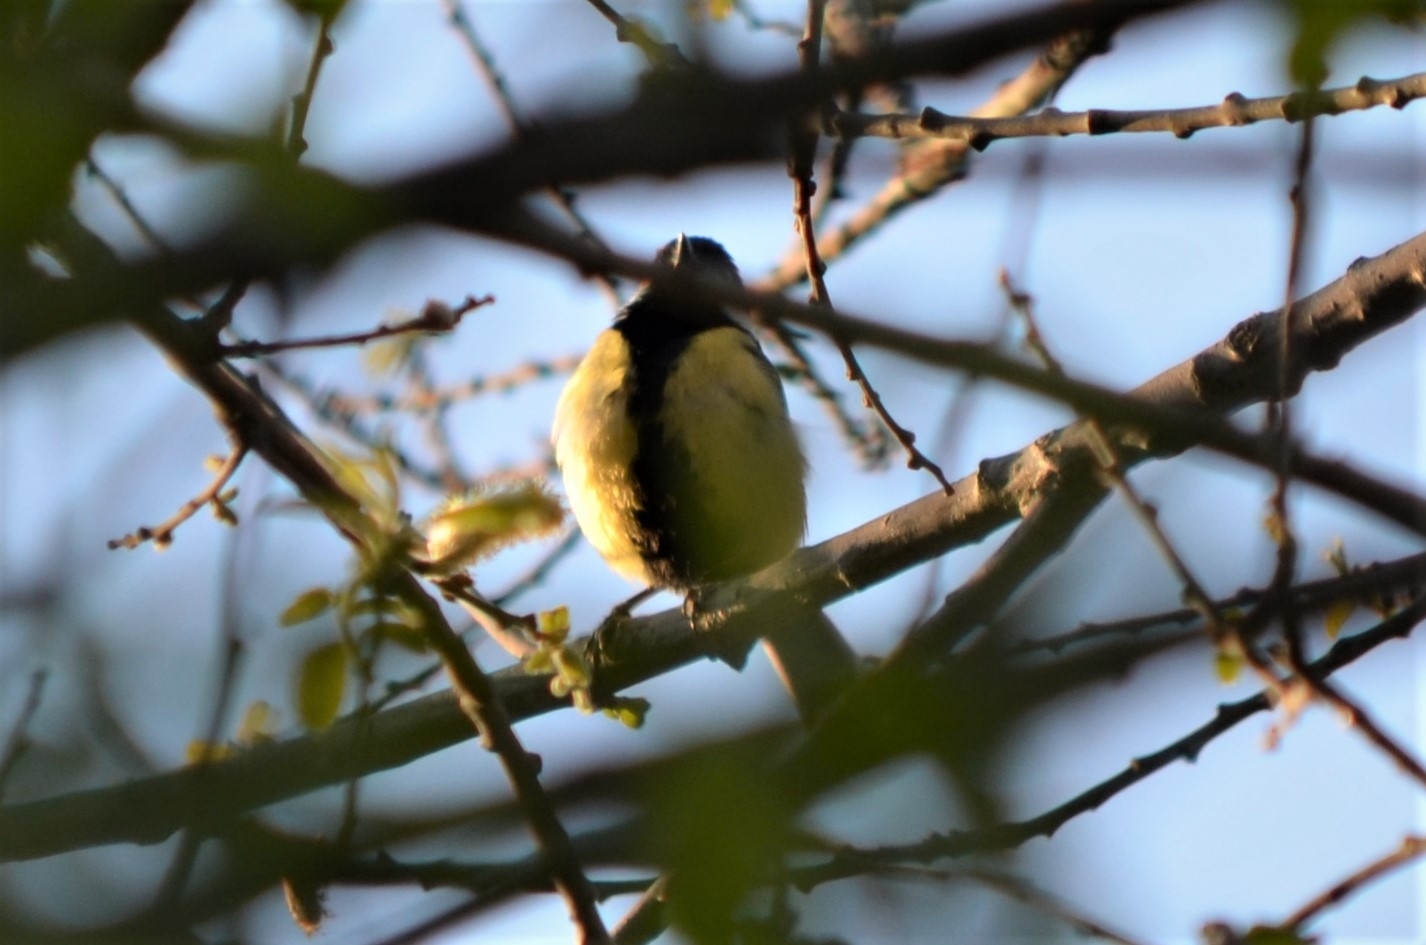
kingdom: Animalia
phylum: Chordata
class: Aves
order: Passeriformes
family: Paridae
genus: Parus
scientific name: Parus major
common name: Great tit
